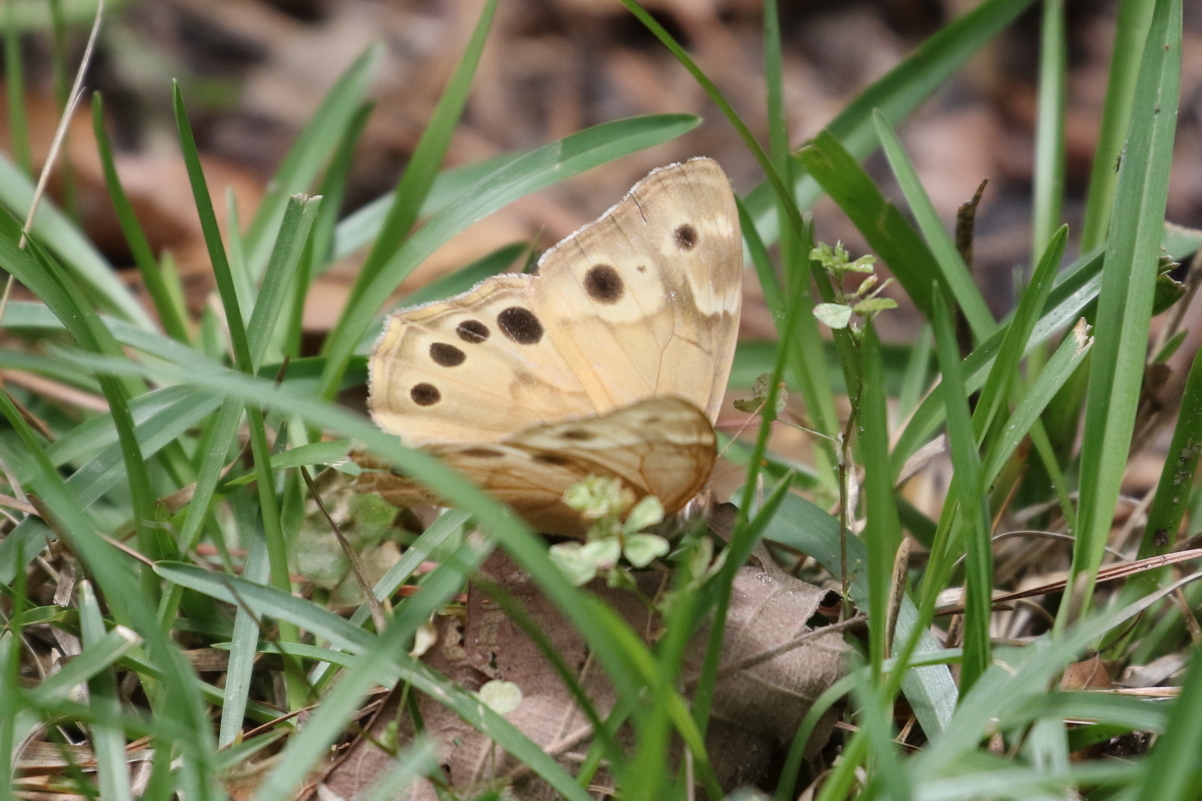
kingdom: Animalia
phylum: Arthropoda
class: Insecta
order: Lepidoptera
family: Nymphalidae
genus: Enodia
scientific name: Enodia portlandia
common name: Southern pearly-eye
